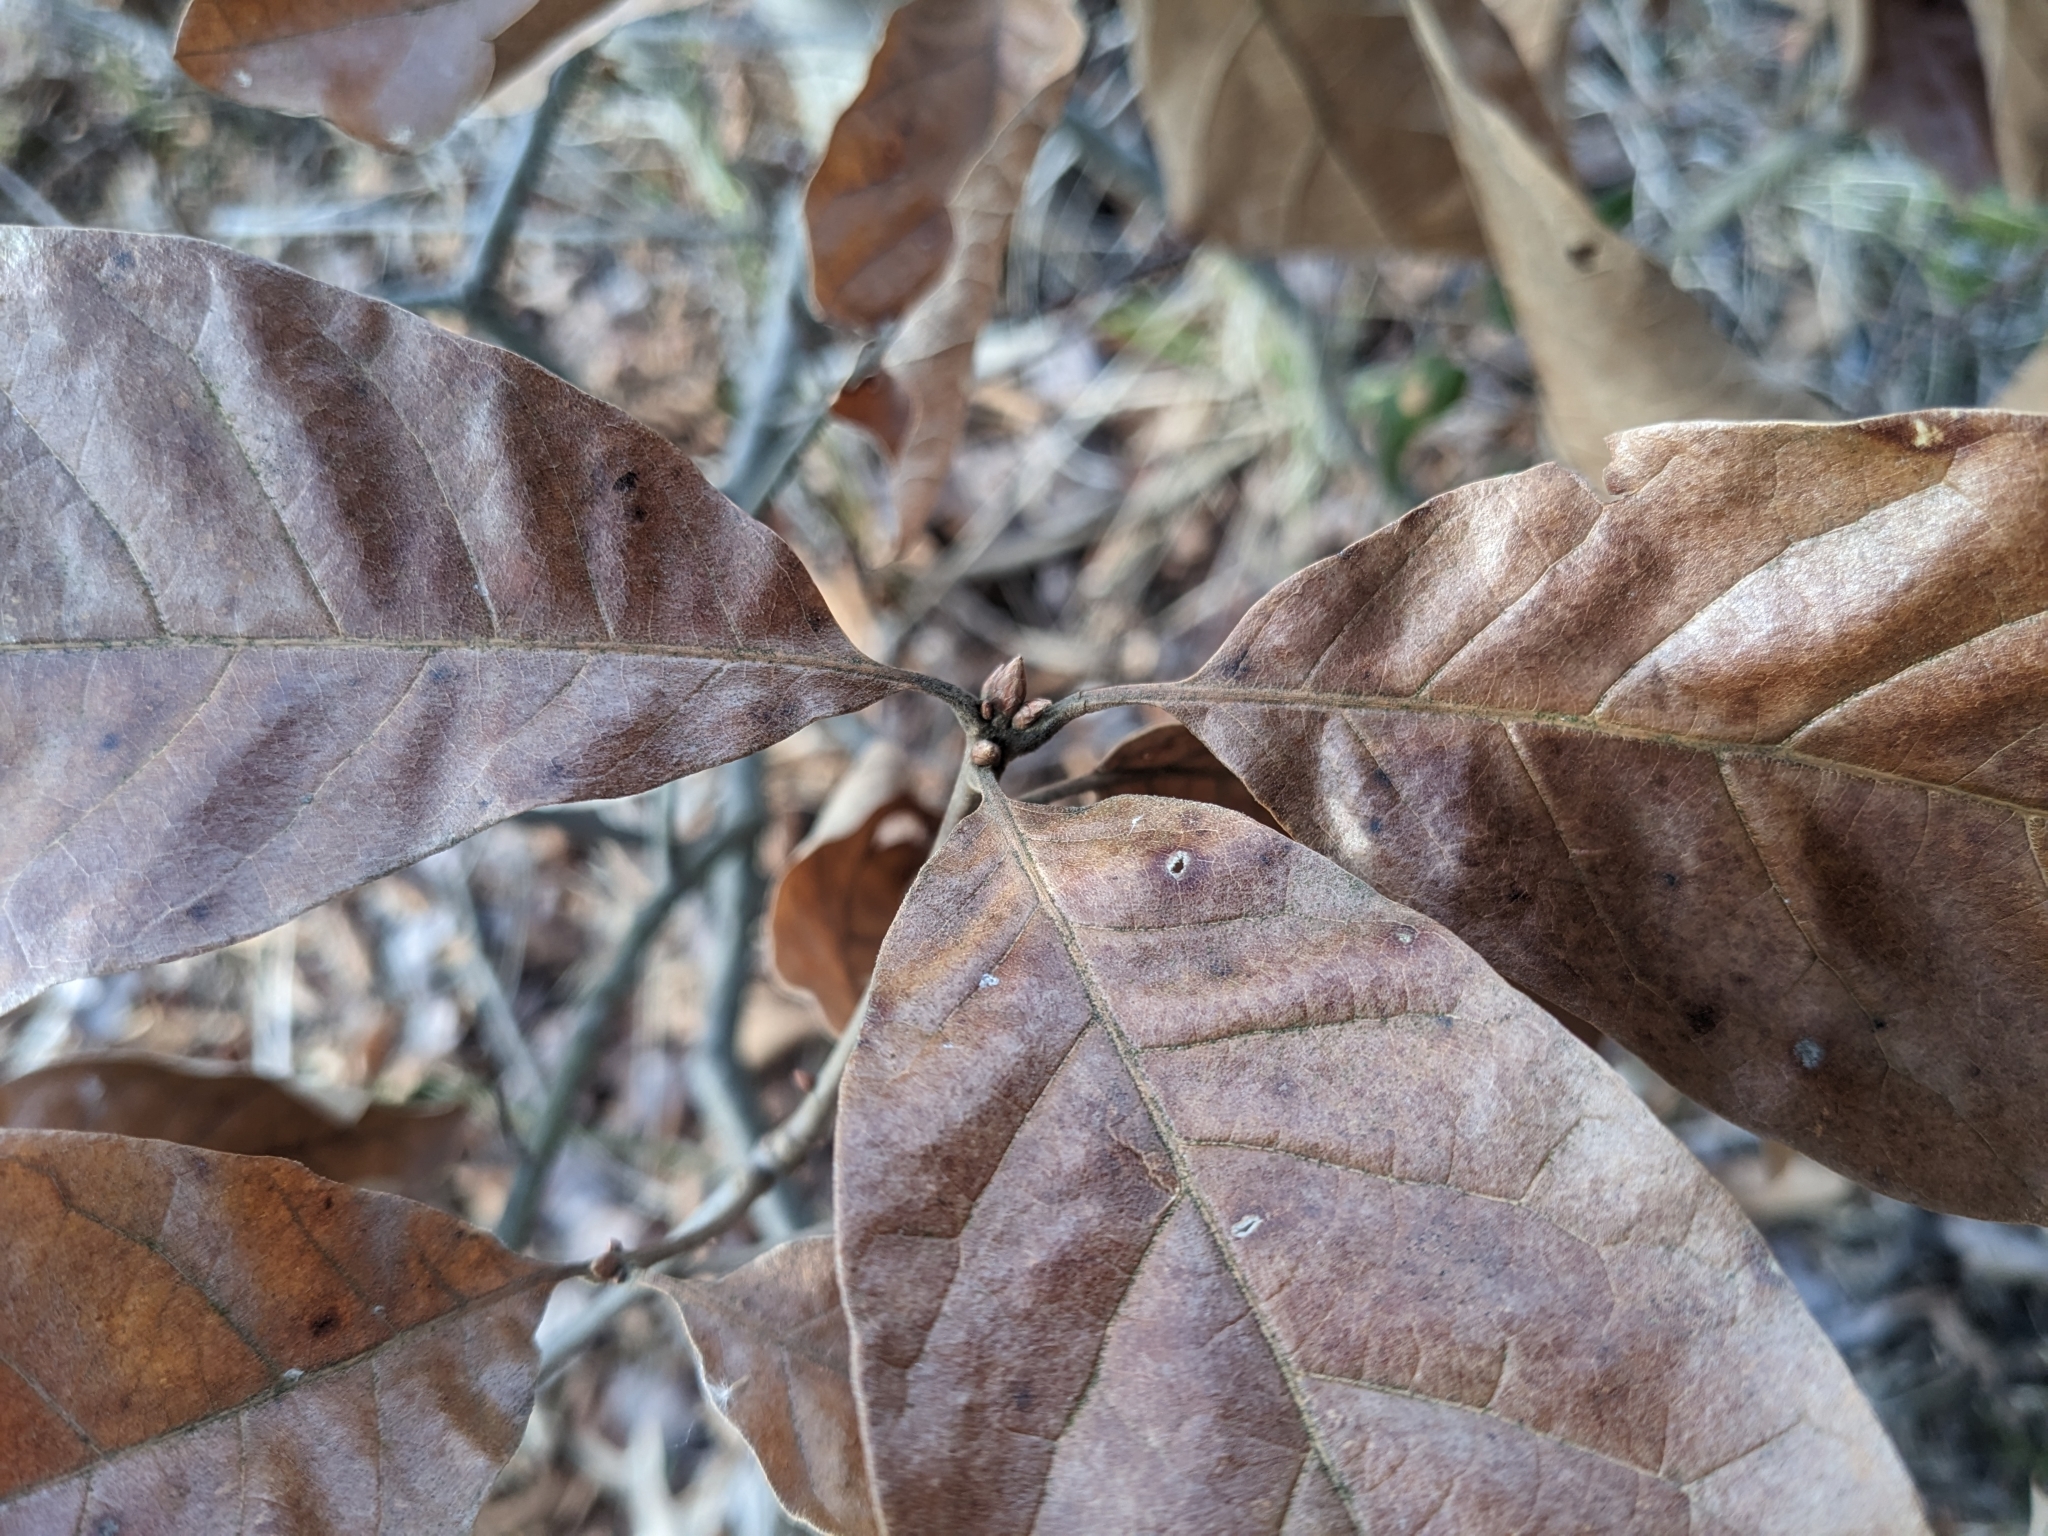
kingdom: Plantae
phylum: Tracheophyta
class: Magnoliopsida
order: Fagales
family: Fagaceae
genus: Quercus
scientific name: Quercus falcata
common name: Southern red oak
